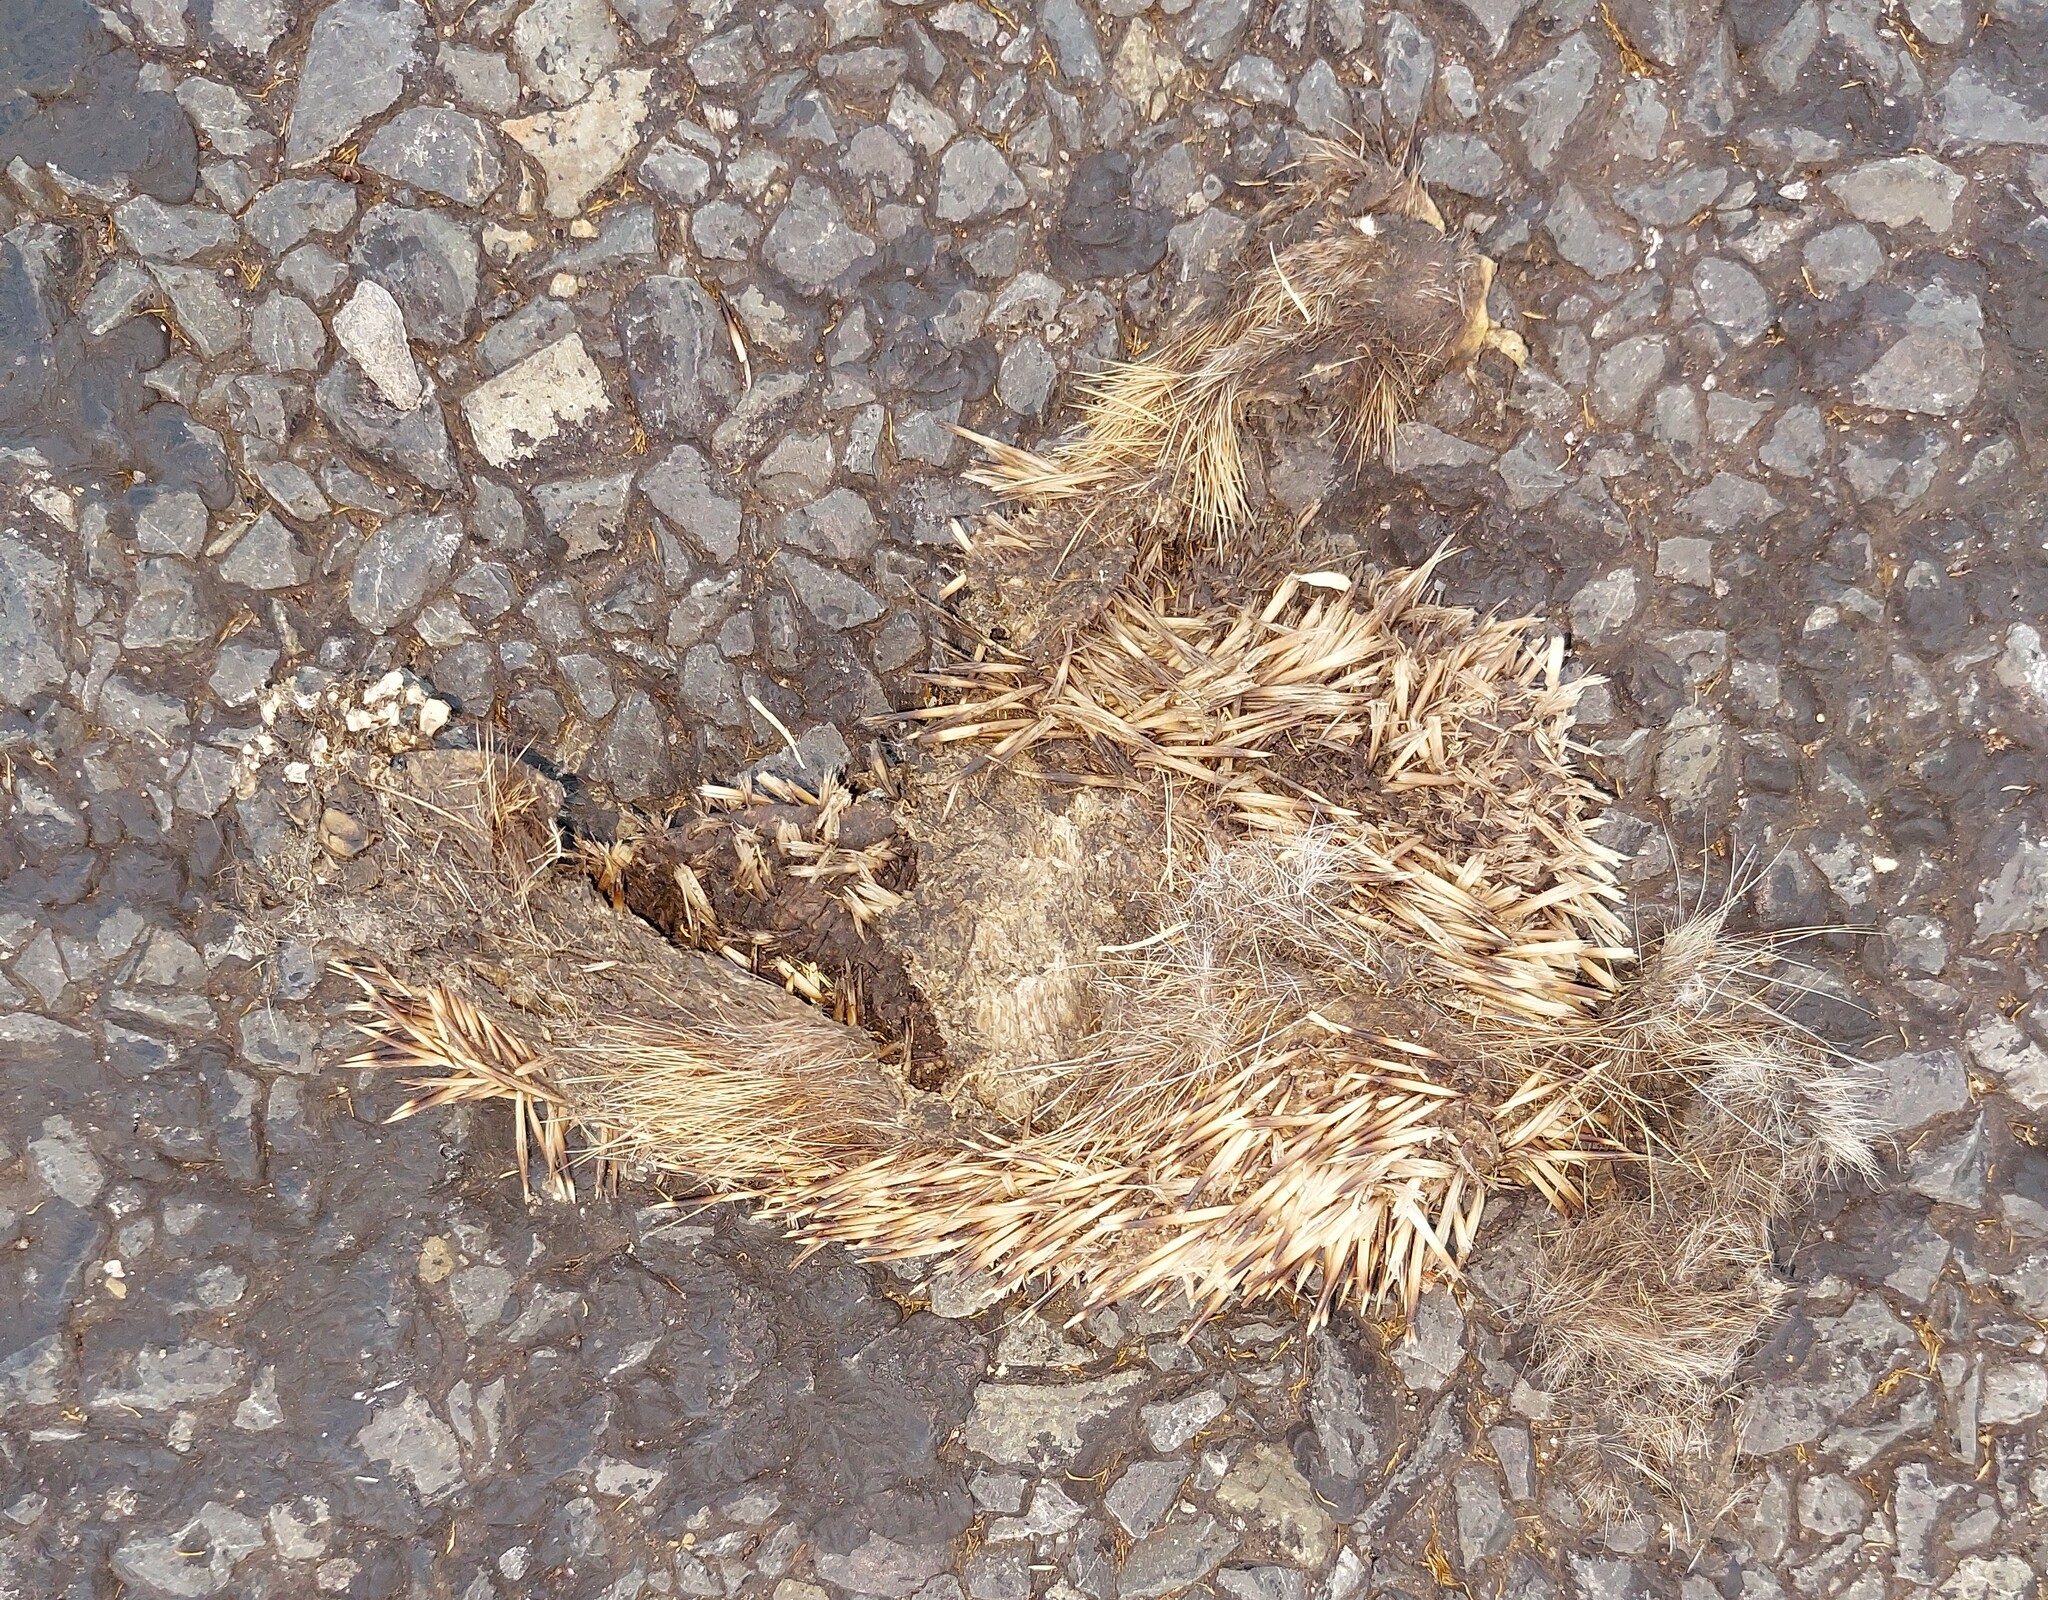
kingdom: Animalia
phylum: Chordata
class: Mammalia
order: Erinaceomorpha
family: Erinaceidae
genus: Erinaceus
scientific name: Erinaceus europaeus
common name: West european hedgehog
